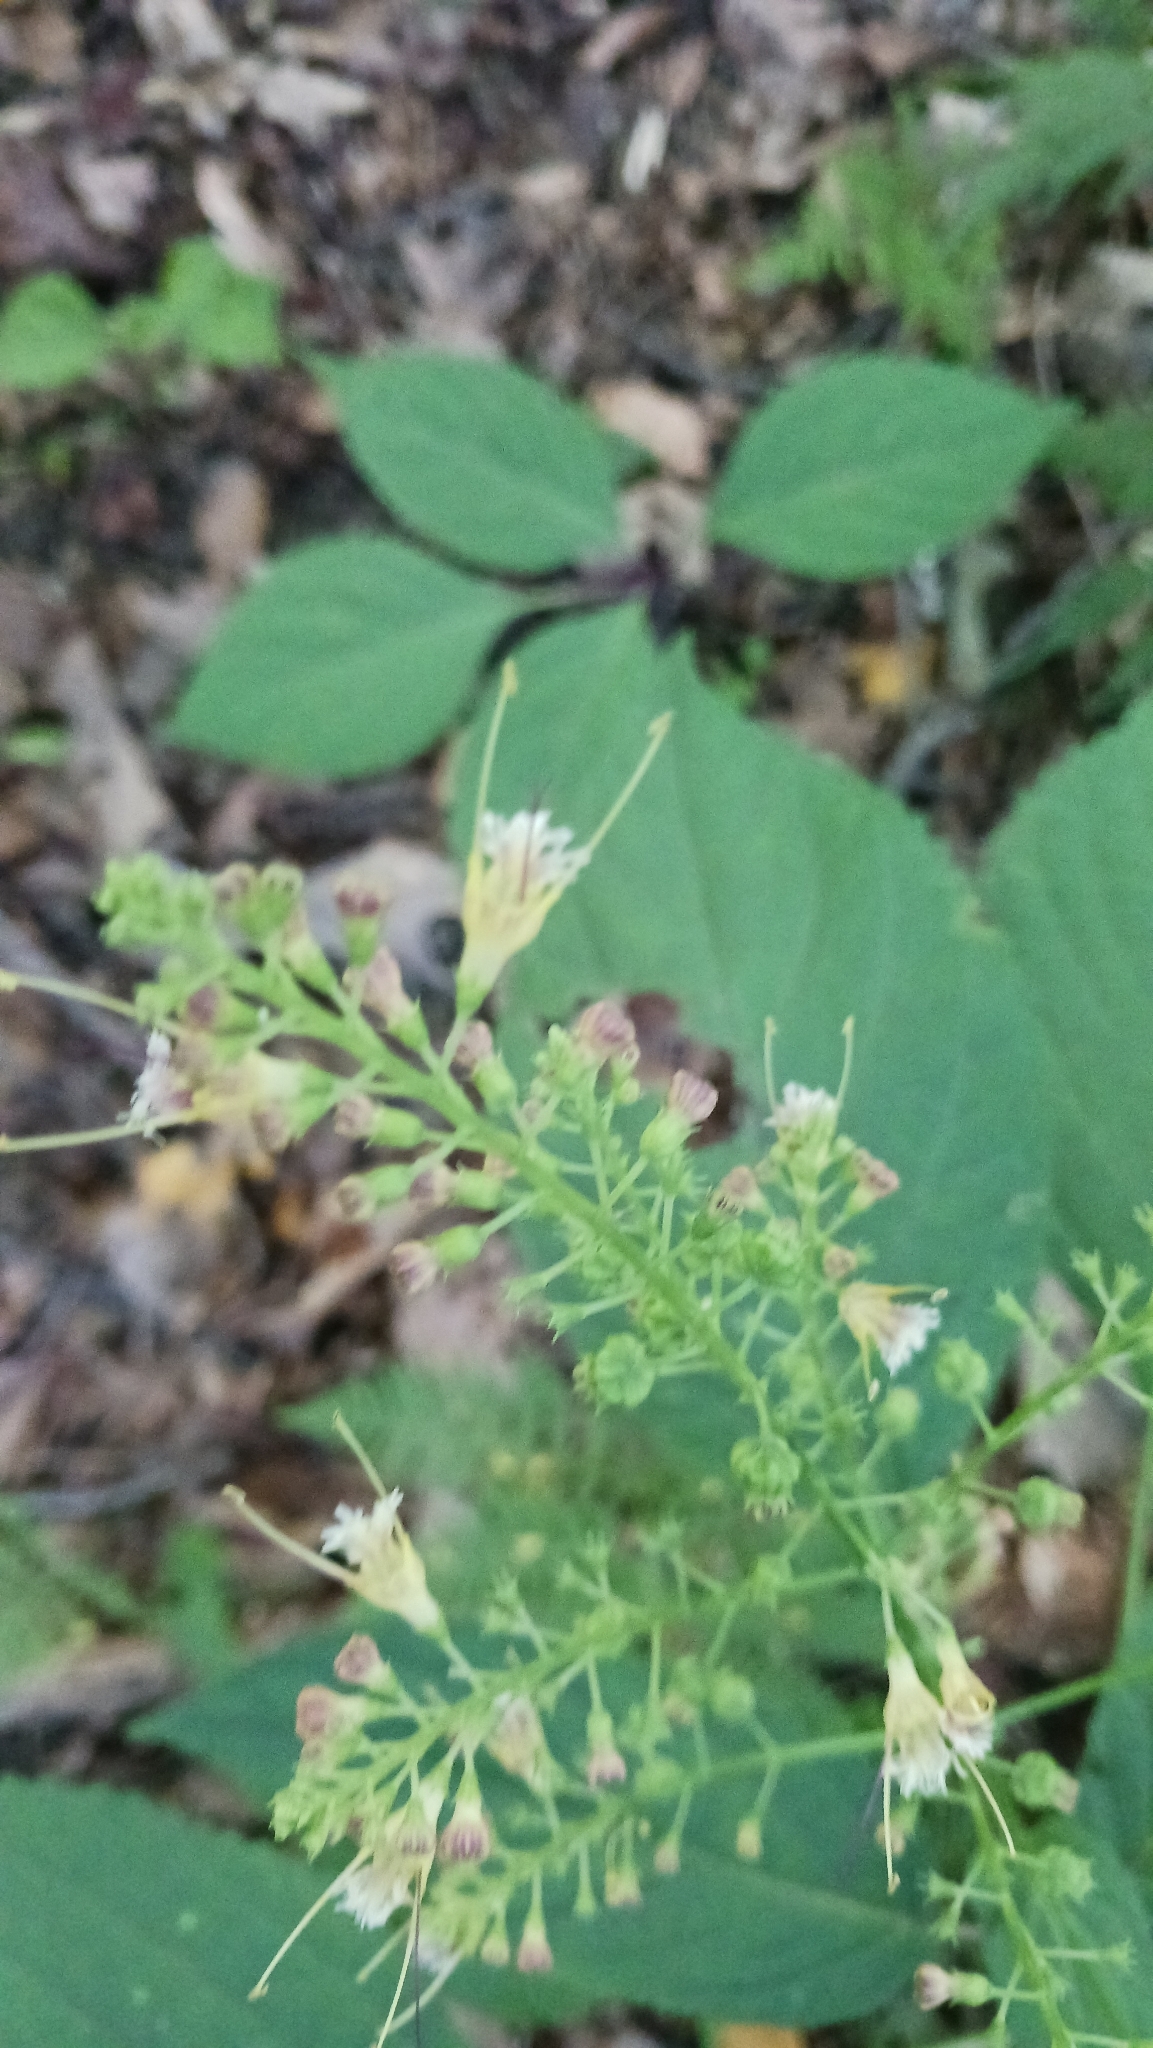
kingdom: Plantae
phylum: Tracheophyta
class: Magnoliopsida
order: Lamiales
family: Lamiaceae
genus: Collinsonia
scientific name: Collinsonia canadensis
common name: Northern horsebalm
